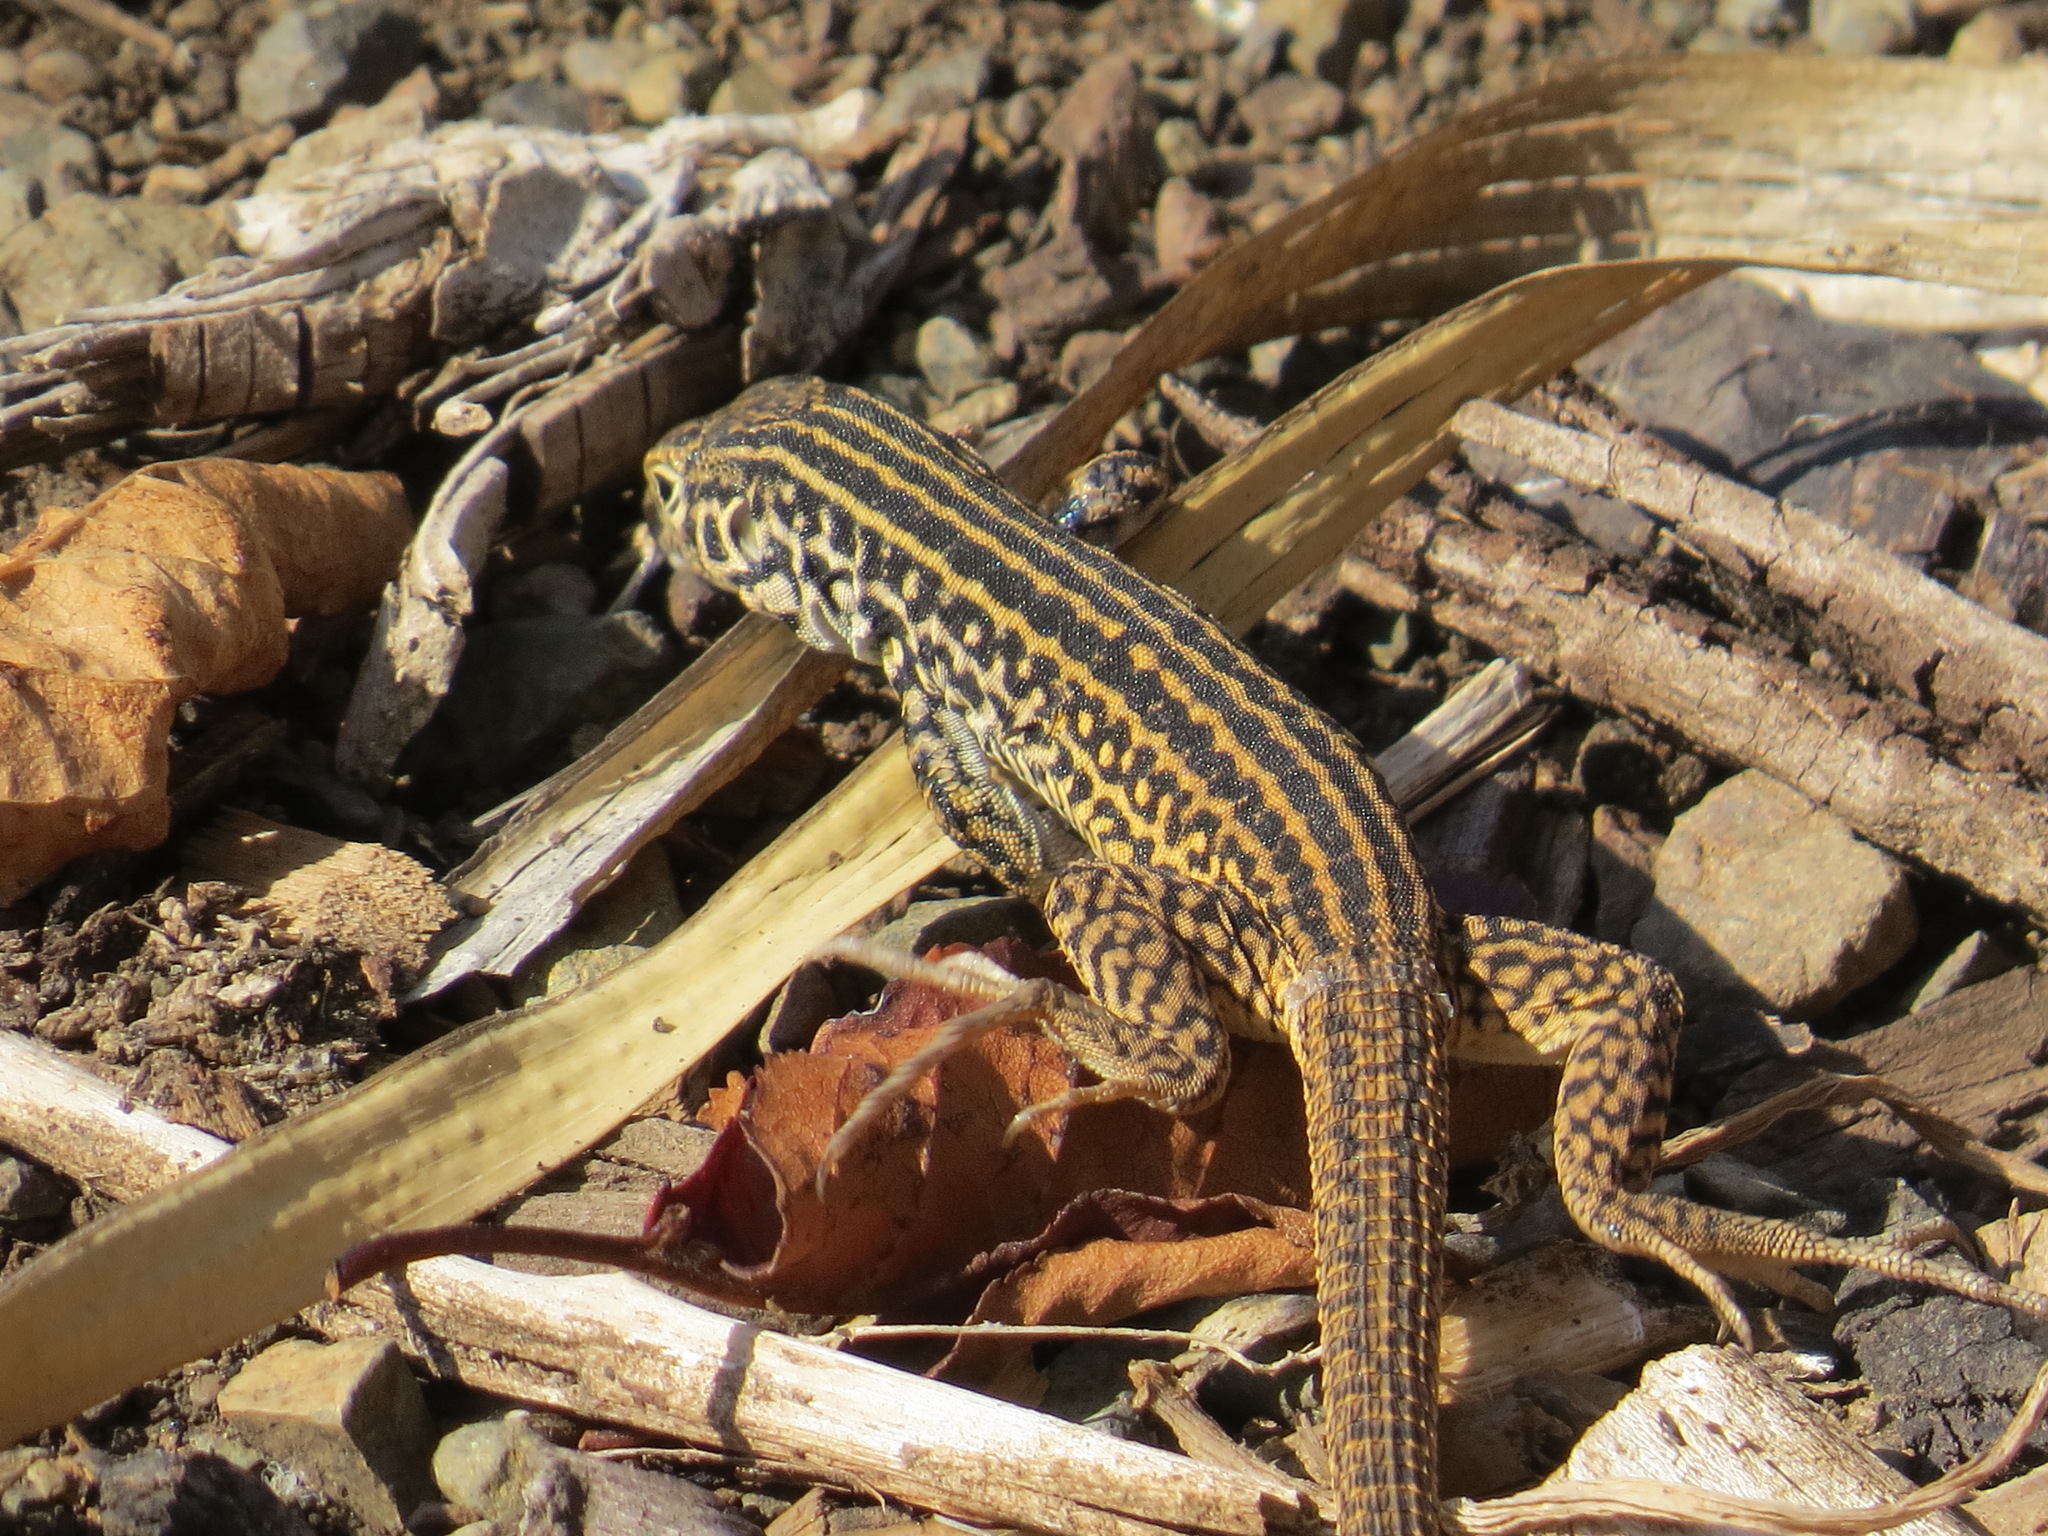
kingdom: Animalia
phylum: Chordata
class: Squamata
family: Teiidae
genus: Aspidoscelis
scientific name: Aspidoscelis tigris
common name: Tiger whiptail
